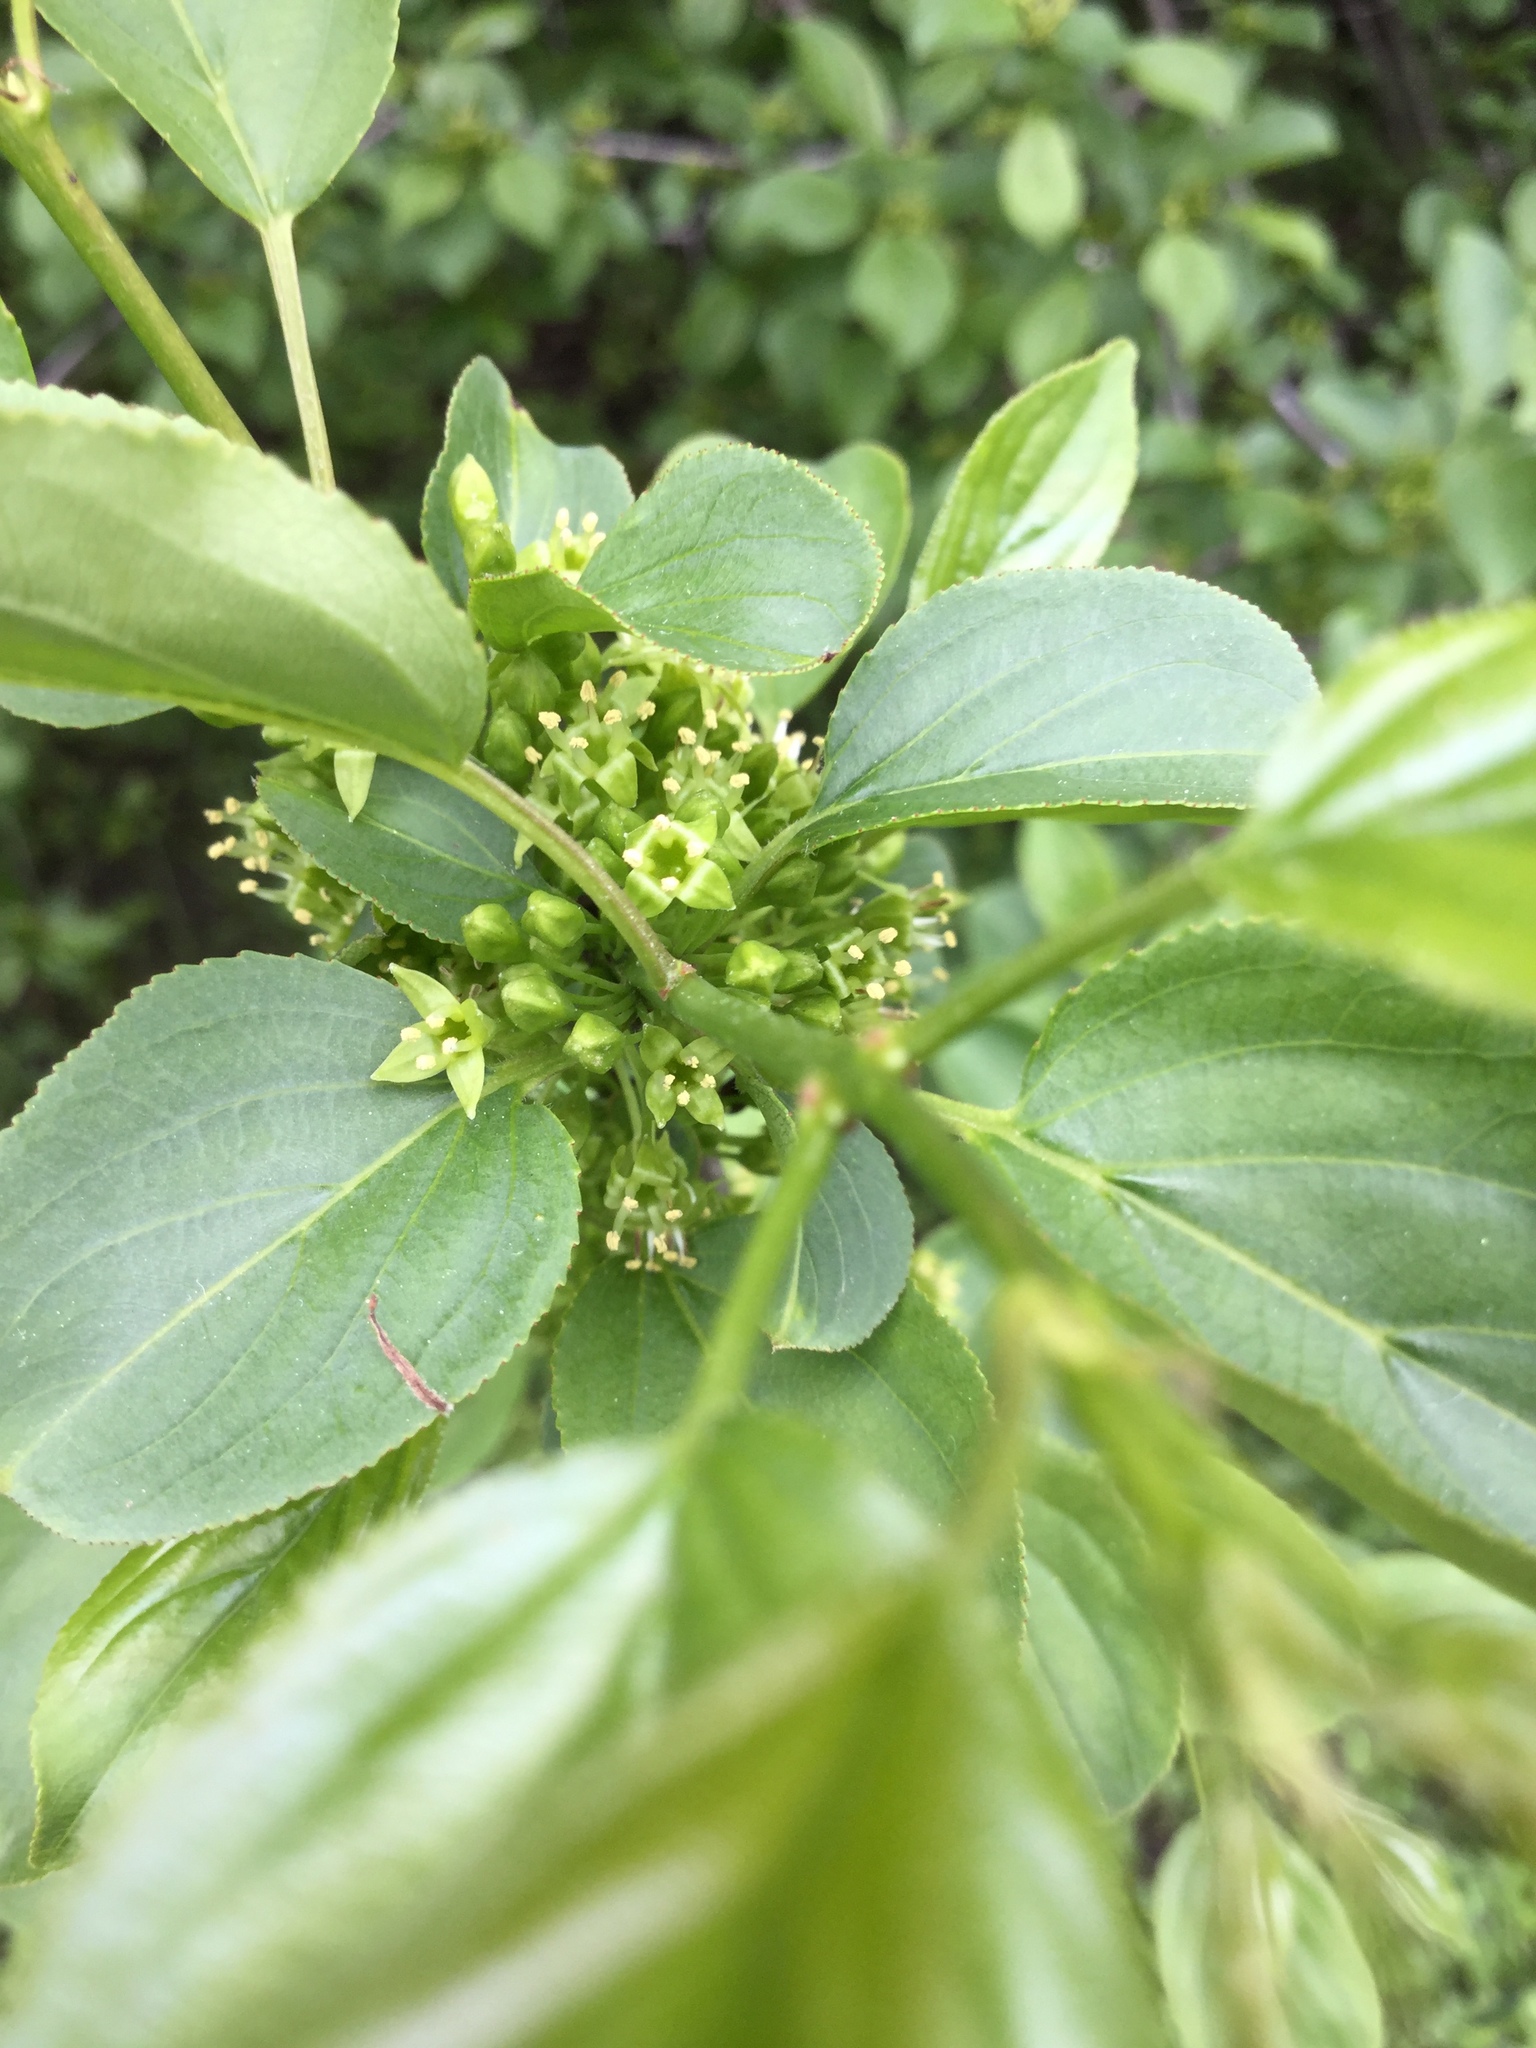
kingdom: Plantae
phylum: Tracheophyta
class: Magnoliopsida
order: Rosales
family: Rhamnaceae
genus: Rhamnus
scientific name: Rhamnus cathartica
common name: Common buckthorn
